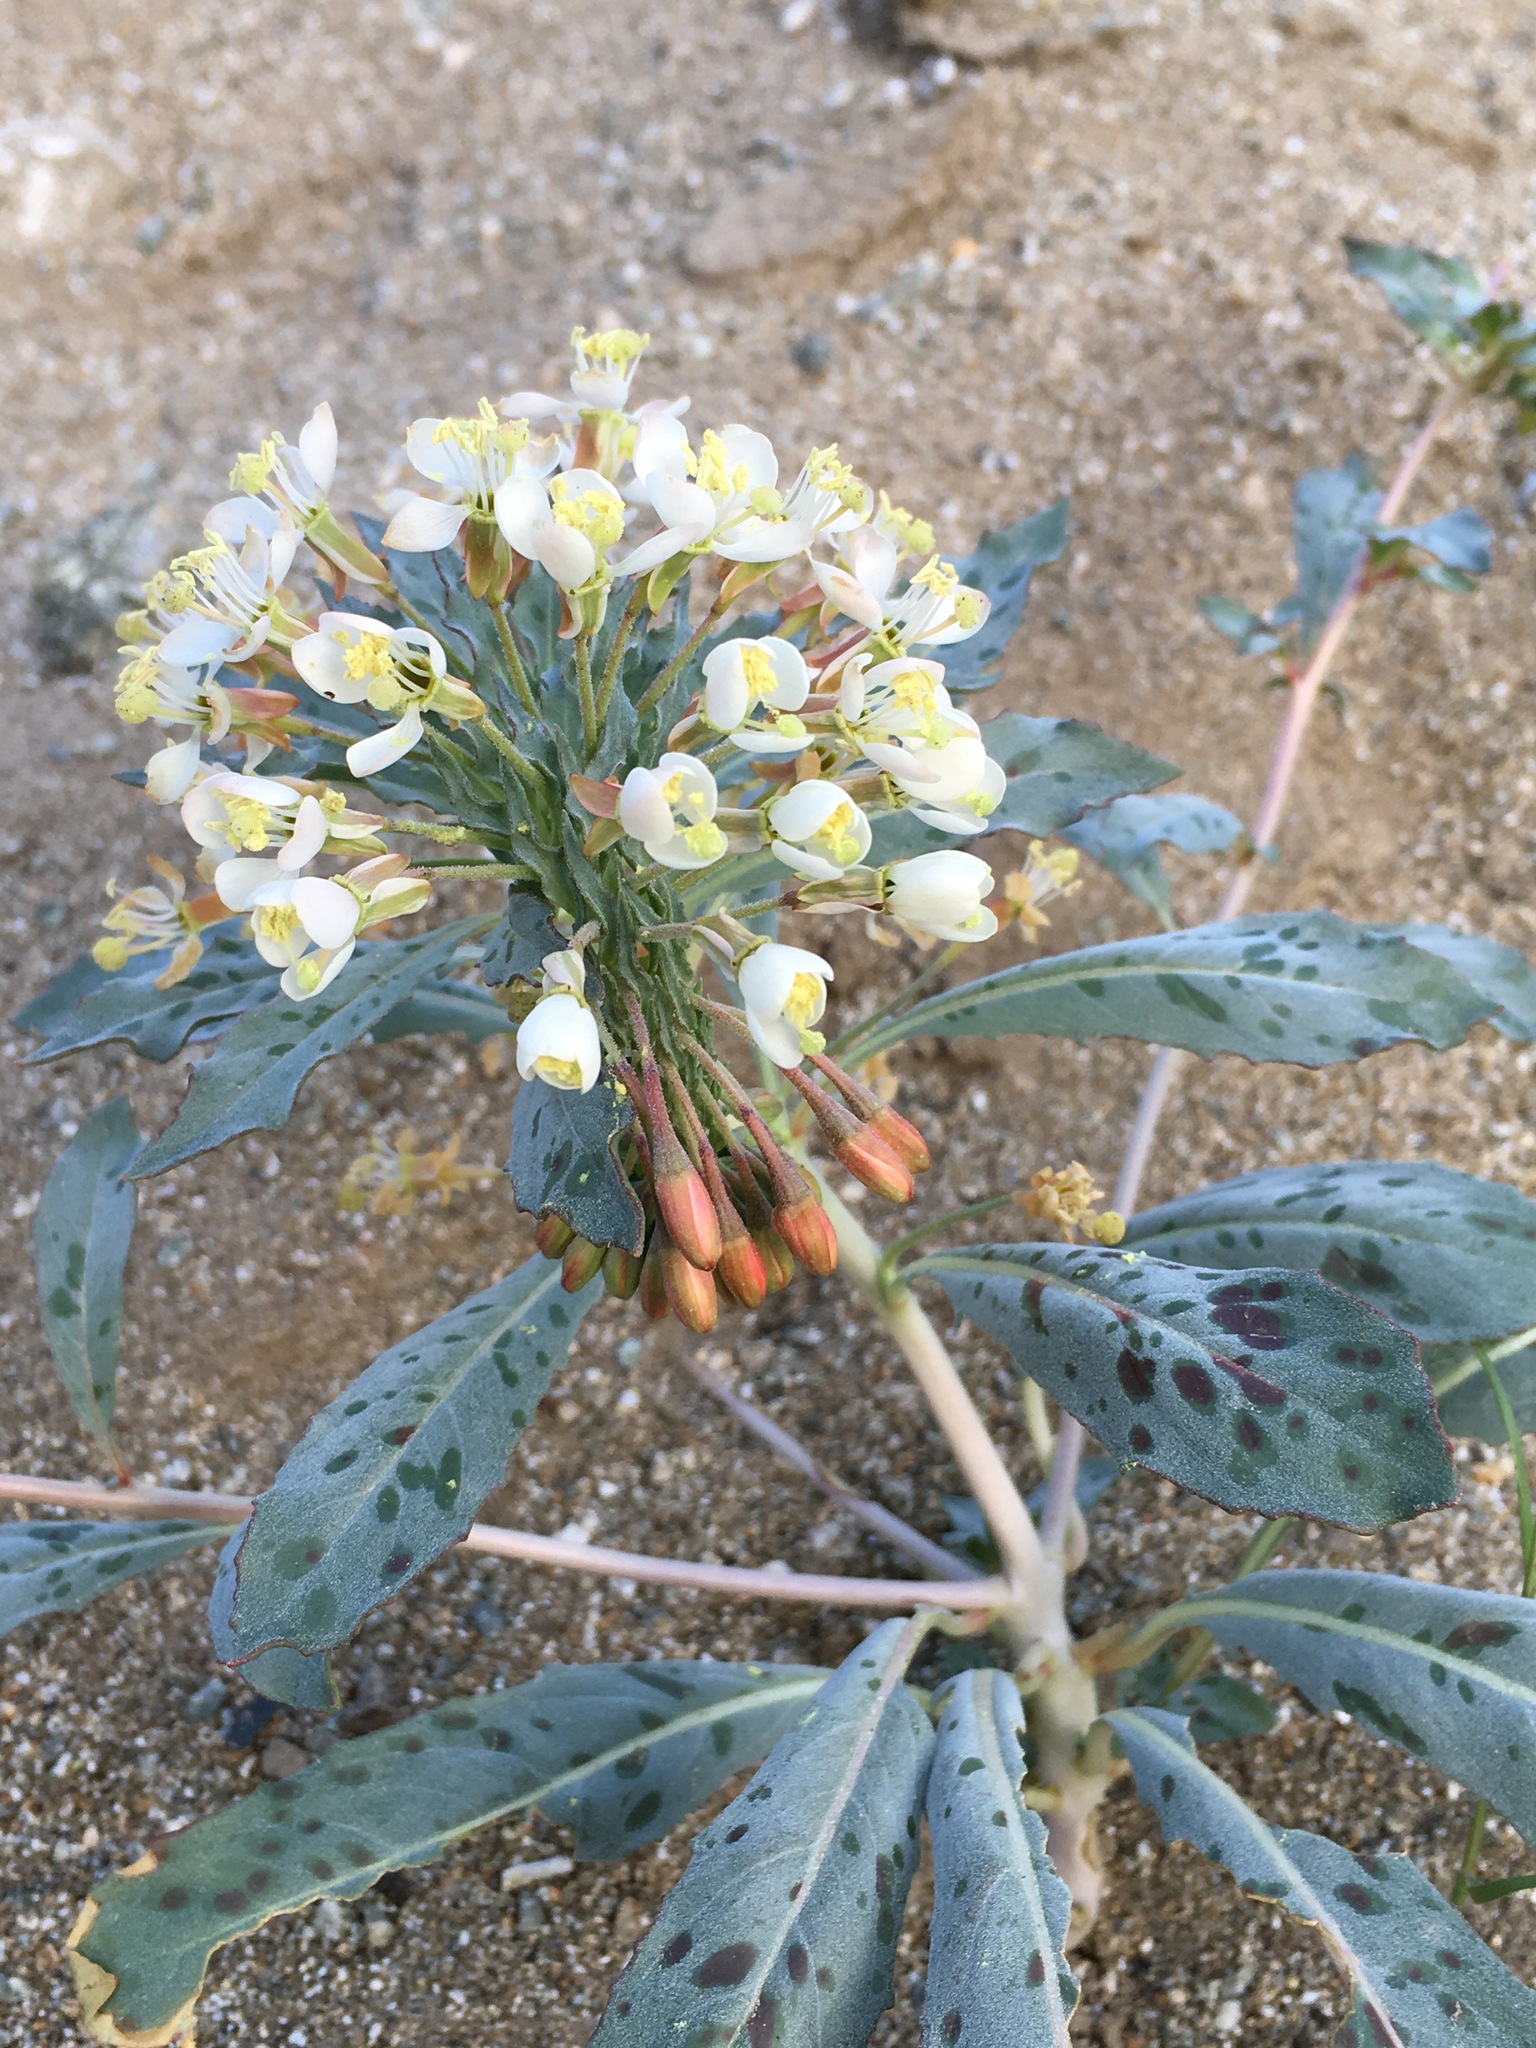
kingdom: Plantae
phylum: Tracheophyta
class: Magnoliopsida
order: Myrtales
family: Onagraceae
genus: Eremothera
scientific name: Eremothera boothii
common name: Booth's evening primrose
